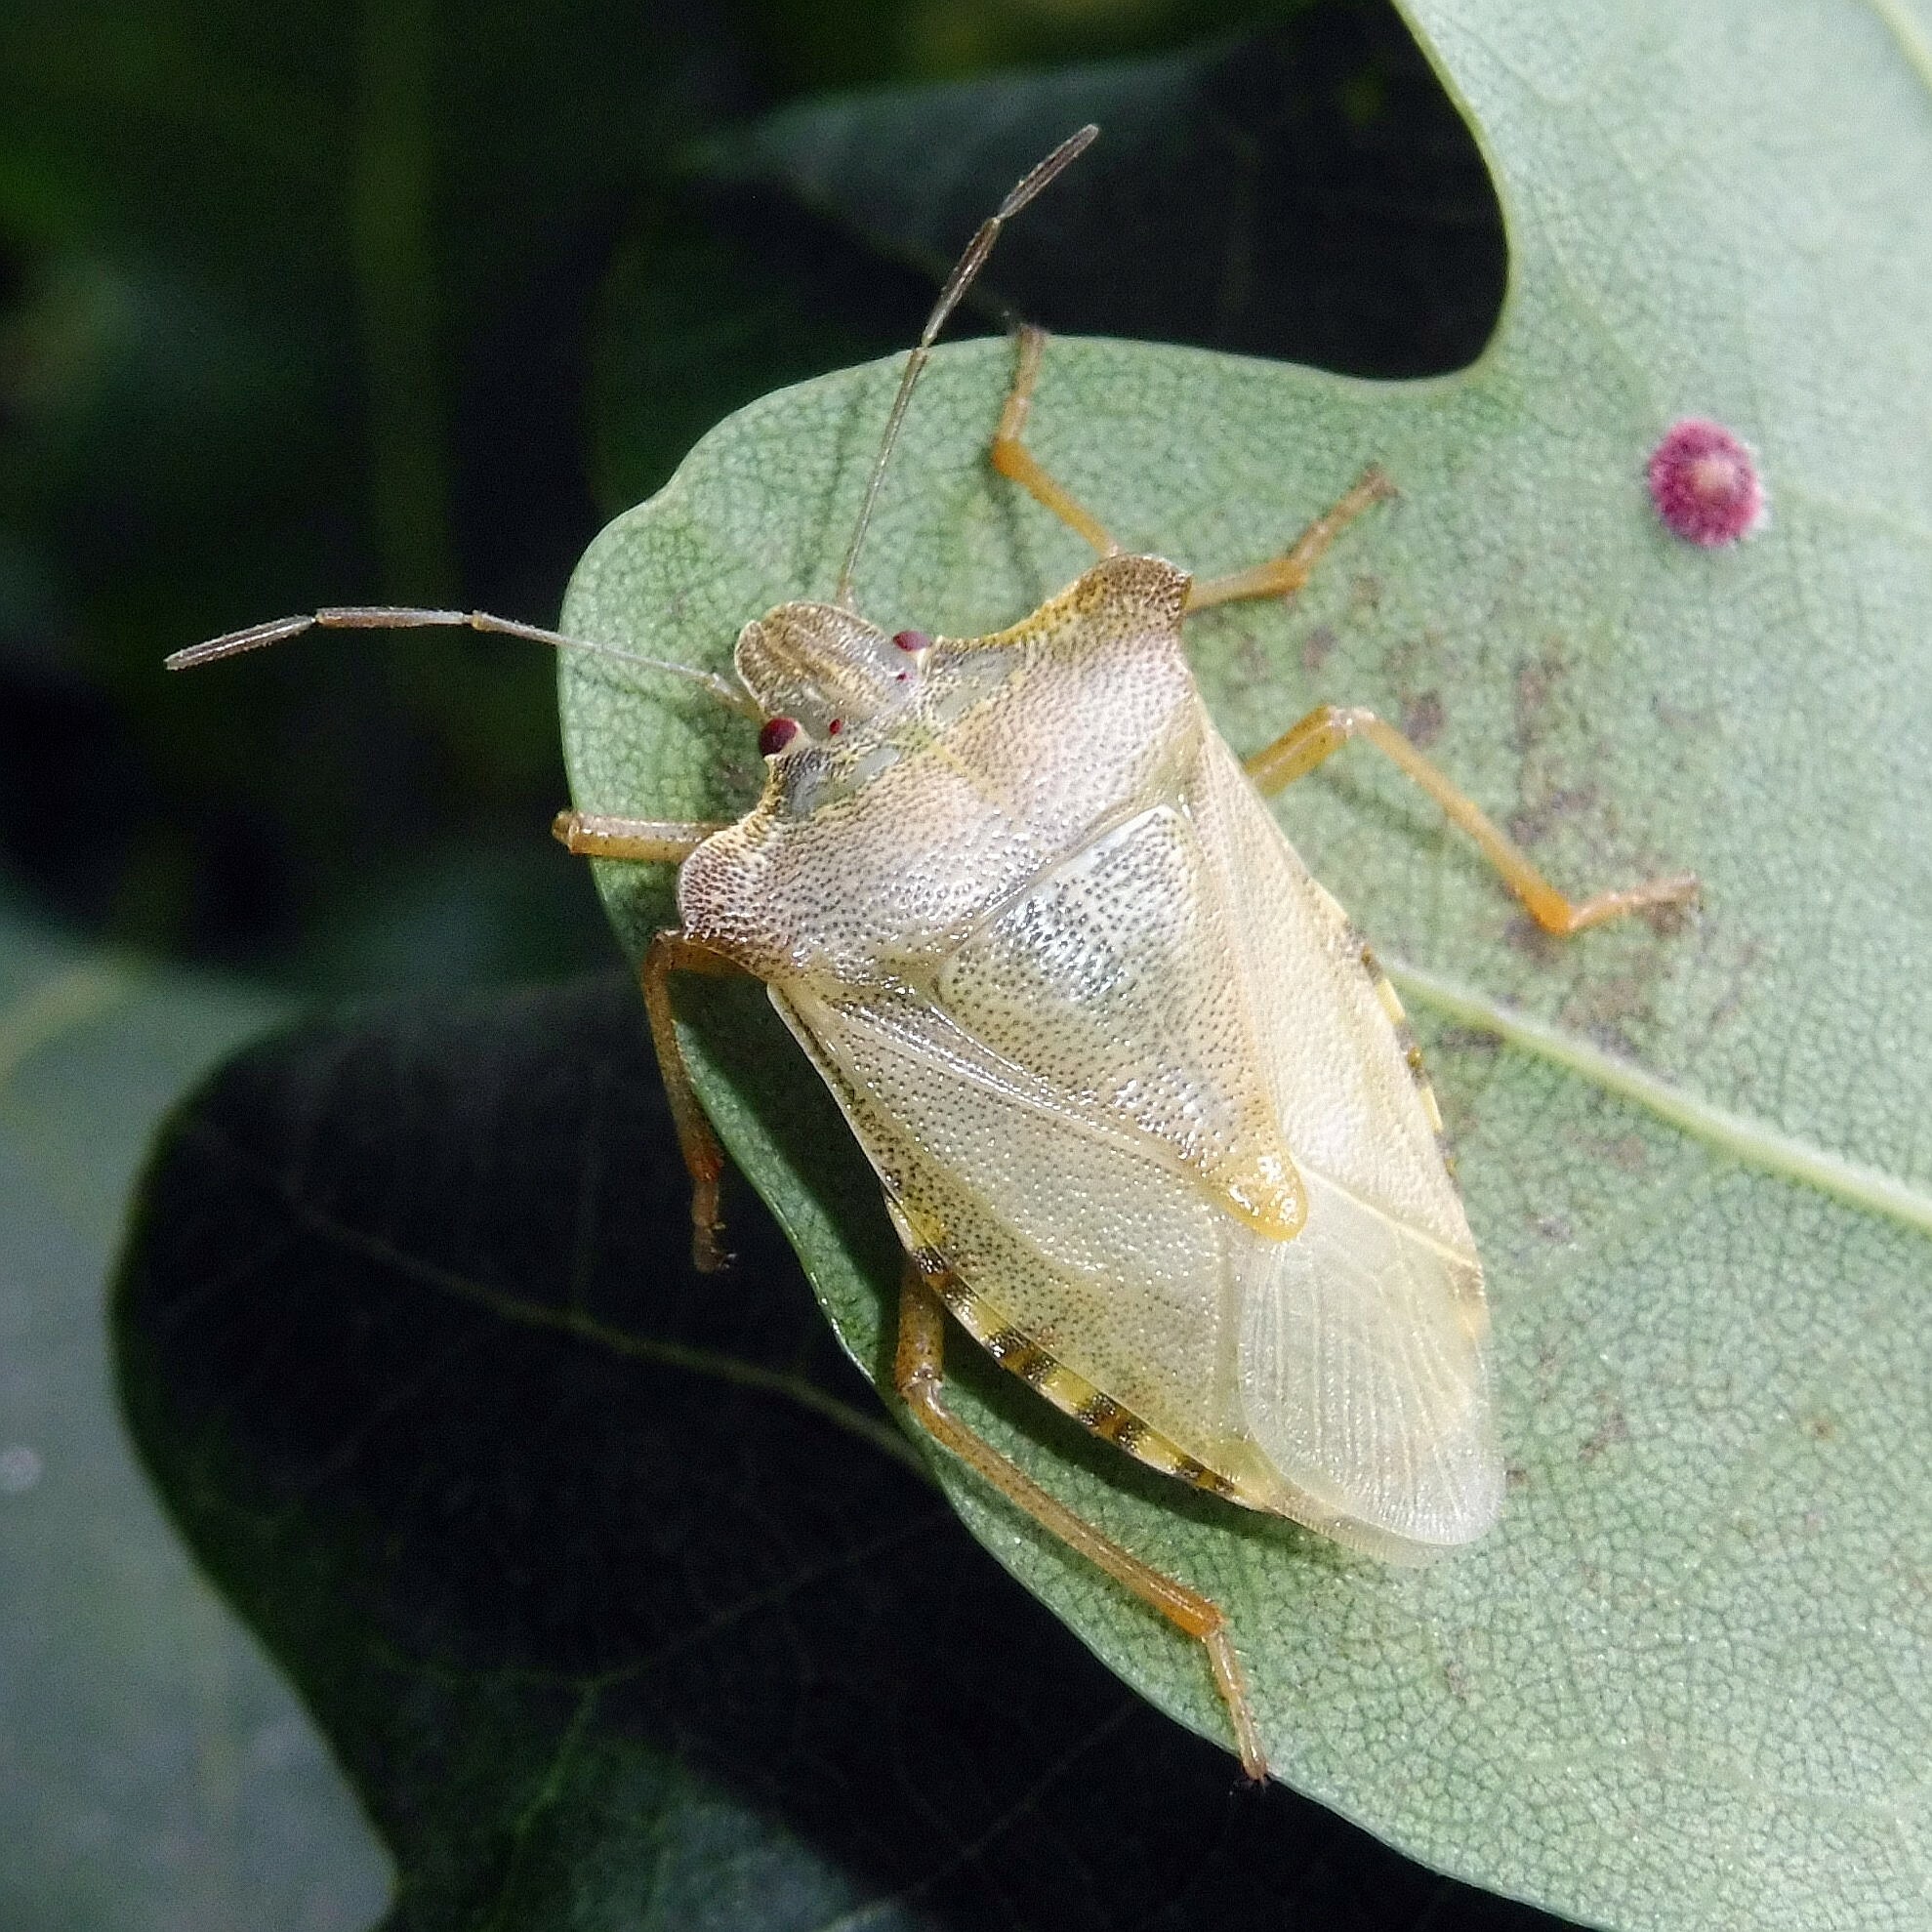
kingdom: Animalia
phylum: Arthropoda
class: Insecta
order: Hemiptera
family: Pentatomidae
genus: Pentatoma
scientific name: Pentatoma rufipes
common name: Forest bug
